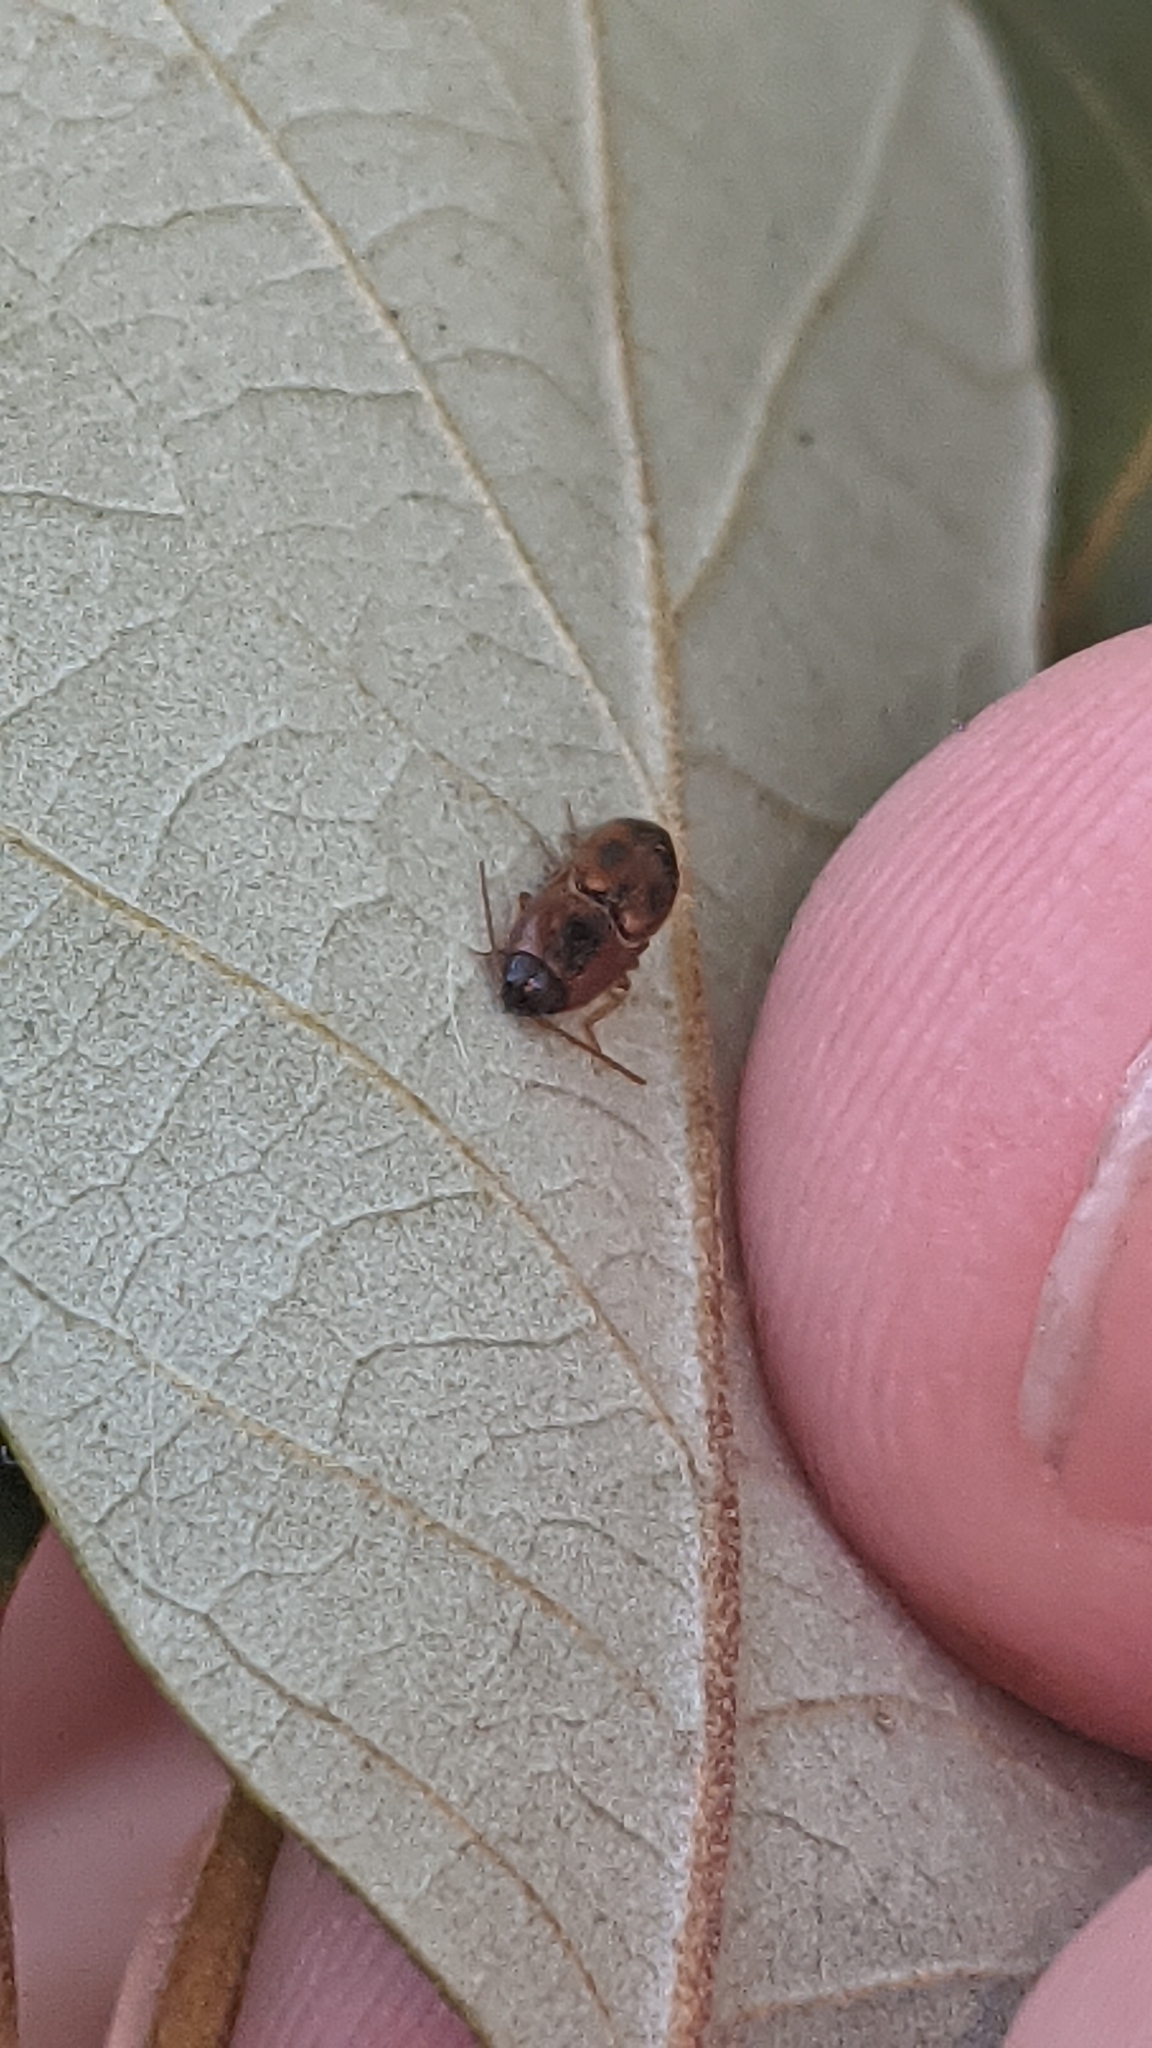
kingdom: Animalia
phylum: Arthropoda
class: Insecta
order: Coleoptera
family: Elateridae
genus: Aeolus
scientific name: Aeolus mellillus
